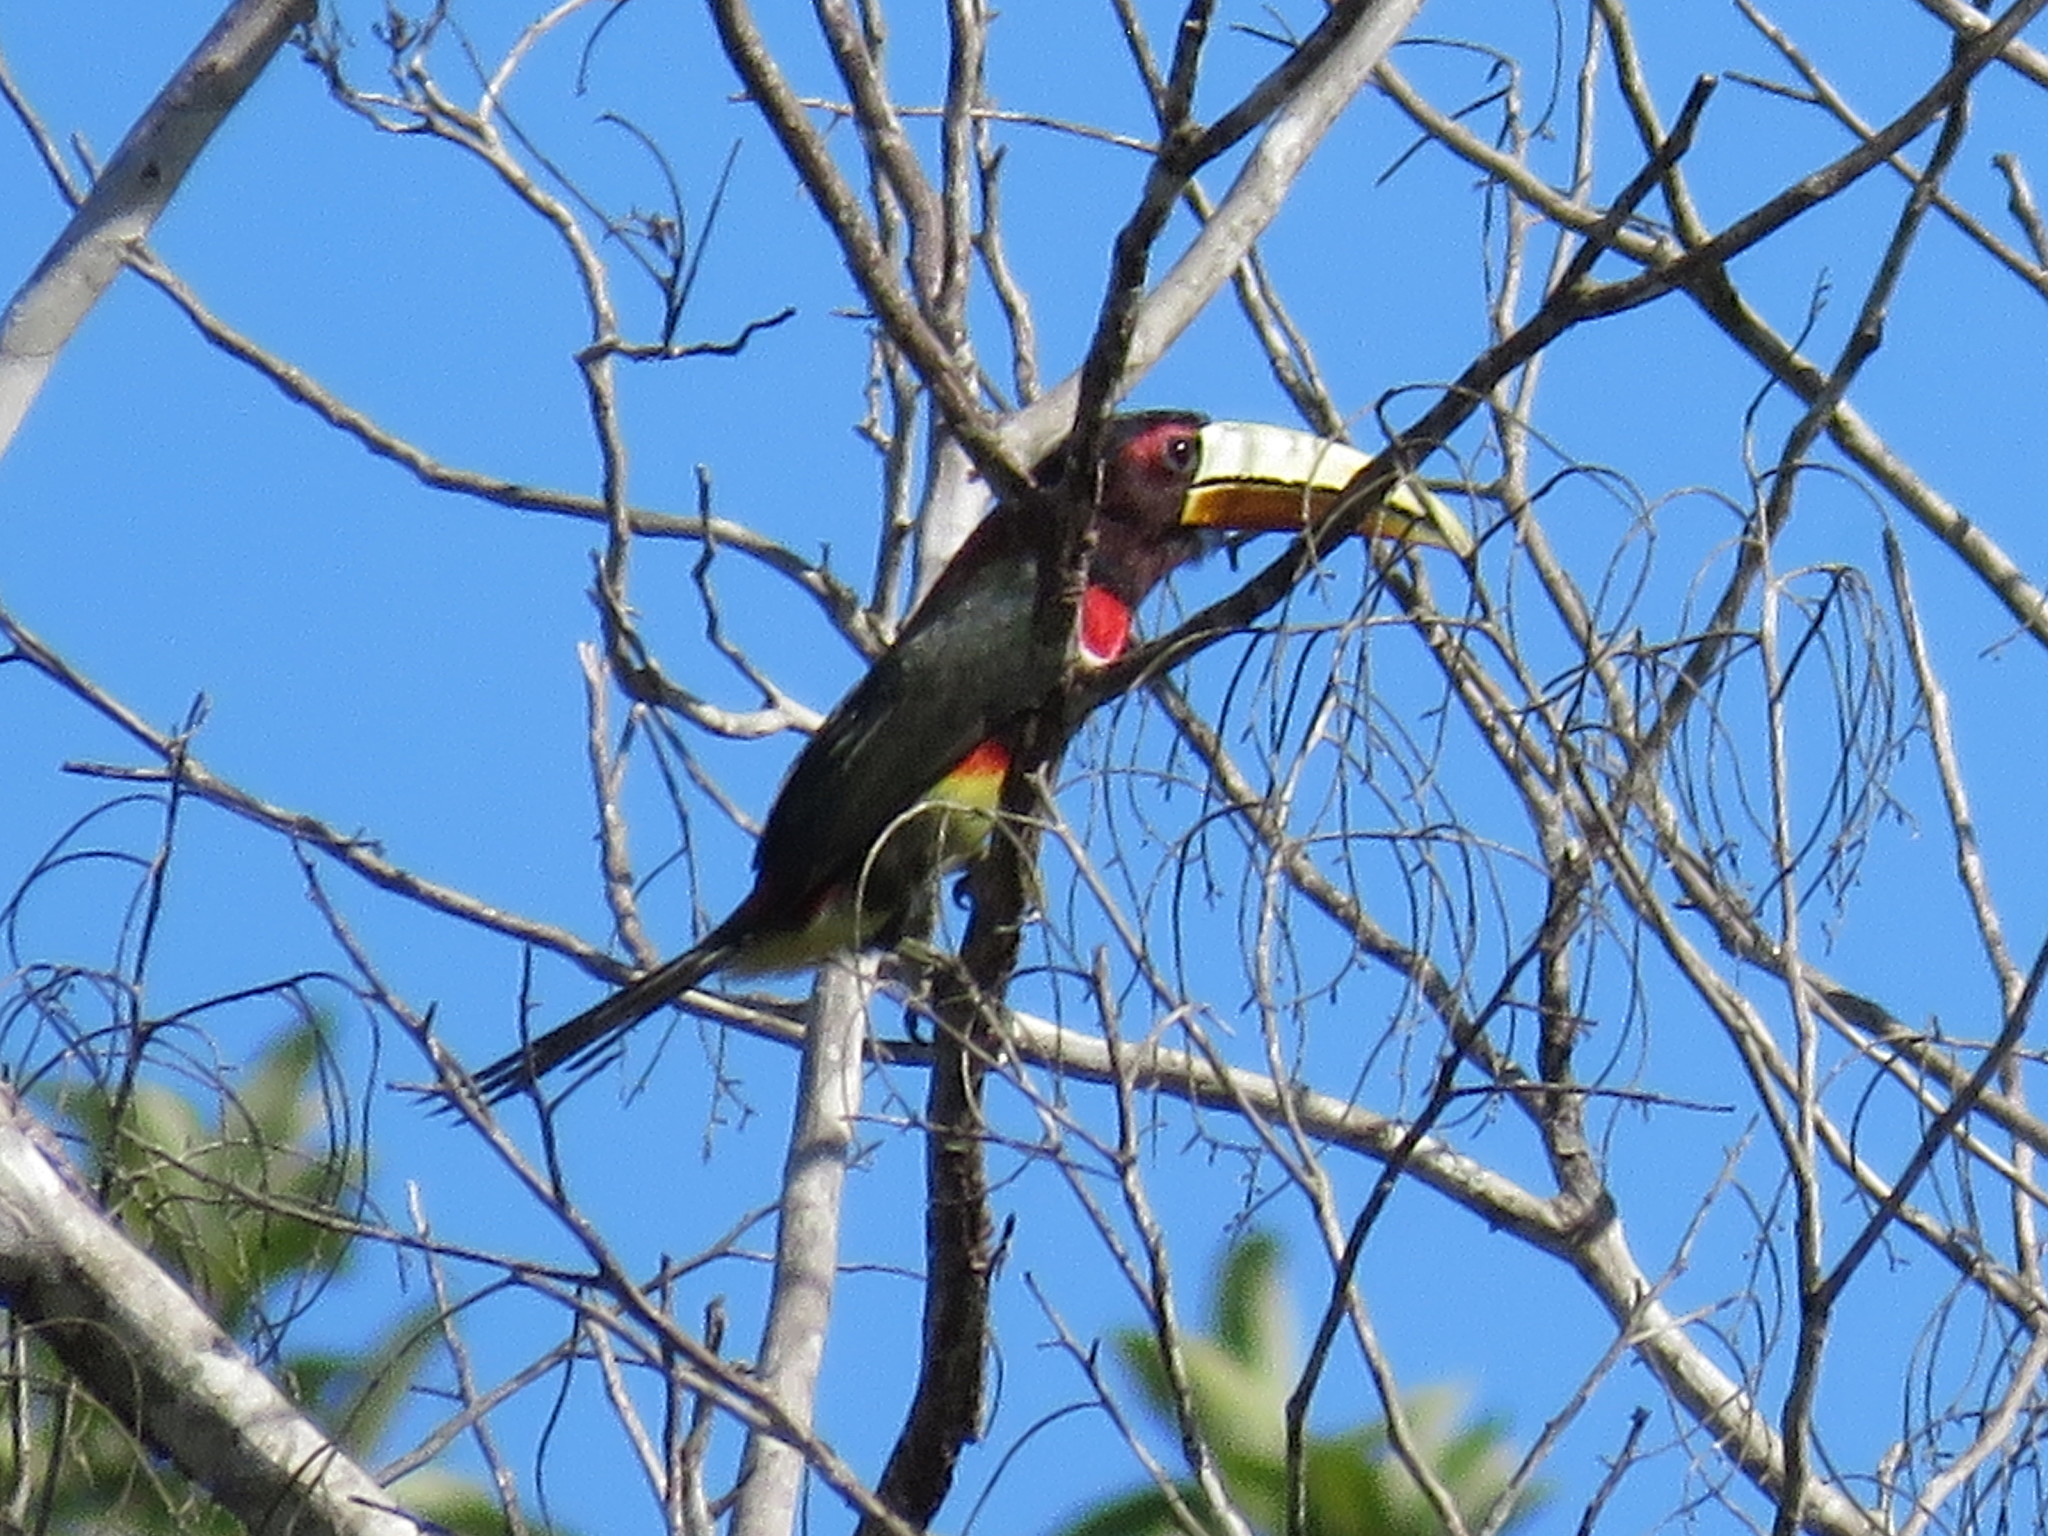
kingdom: Animalia
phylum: Chordata
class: Aves
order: Piciformes
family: Ramphastidae
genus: Pteroglossus
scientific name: Pteroglossus azara
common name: Ivory-billed aracari
